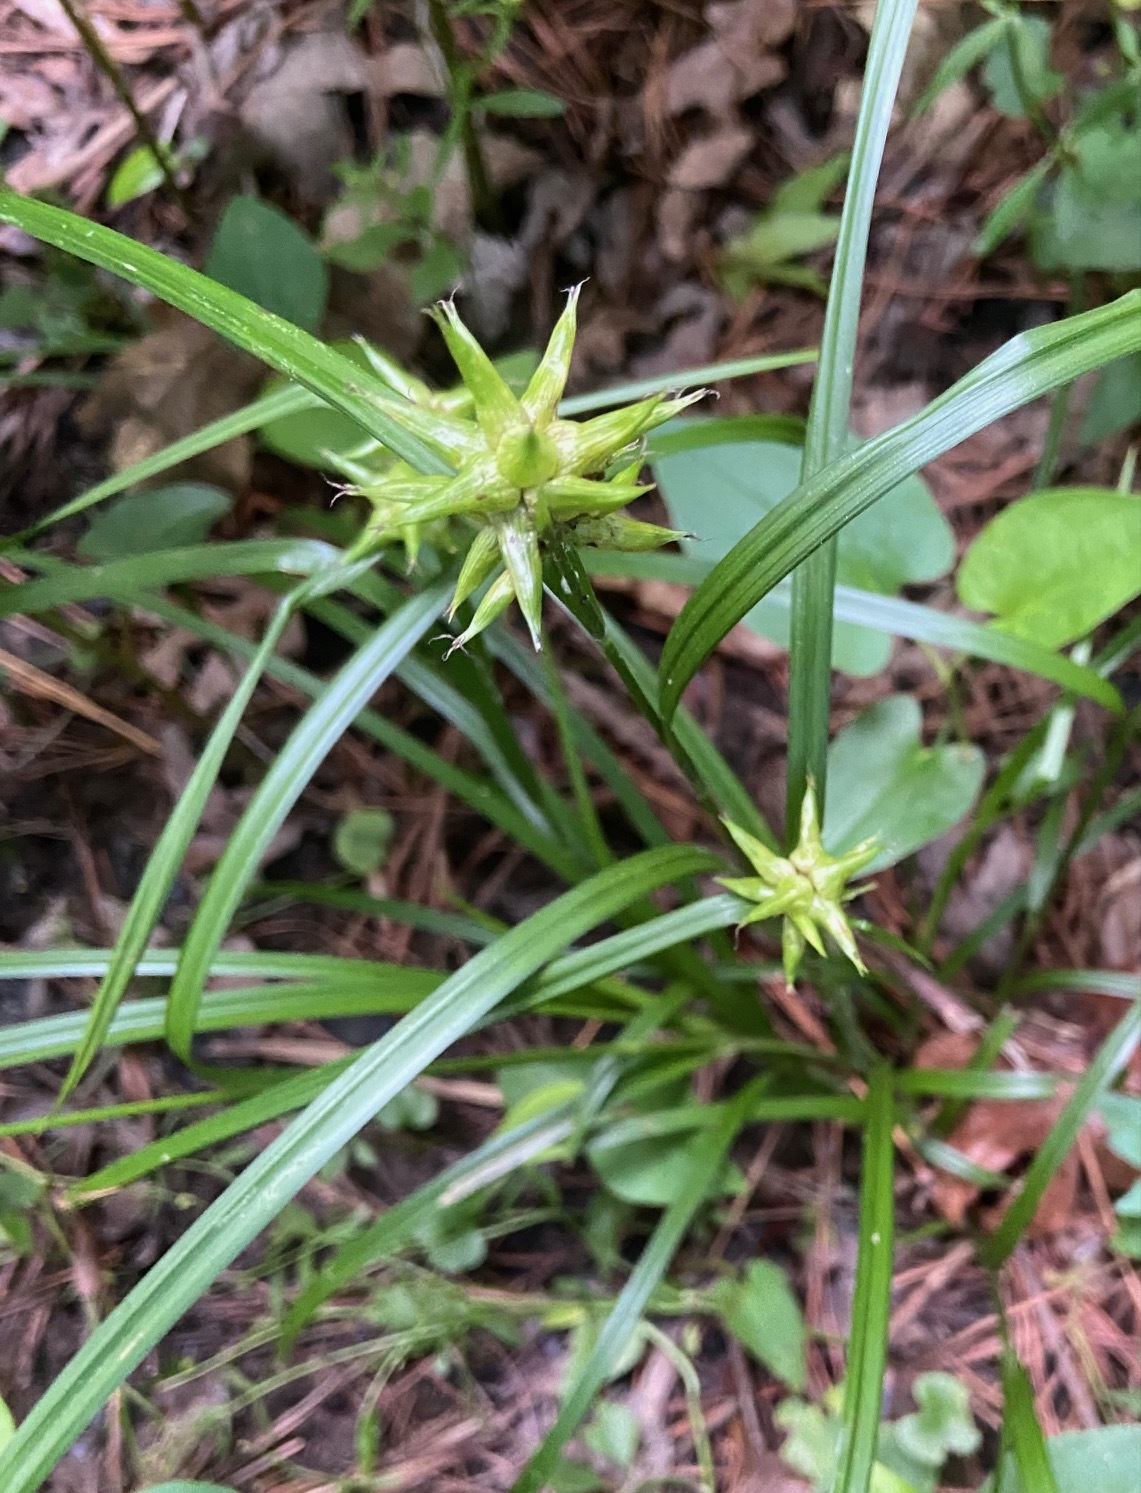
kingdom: Plantae
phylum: Tracheophyta
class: Liliopsida
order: Poales
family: Cyperaceae
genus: Carex
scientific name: Carex grayi
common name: Asa gray's sedge
